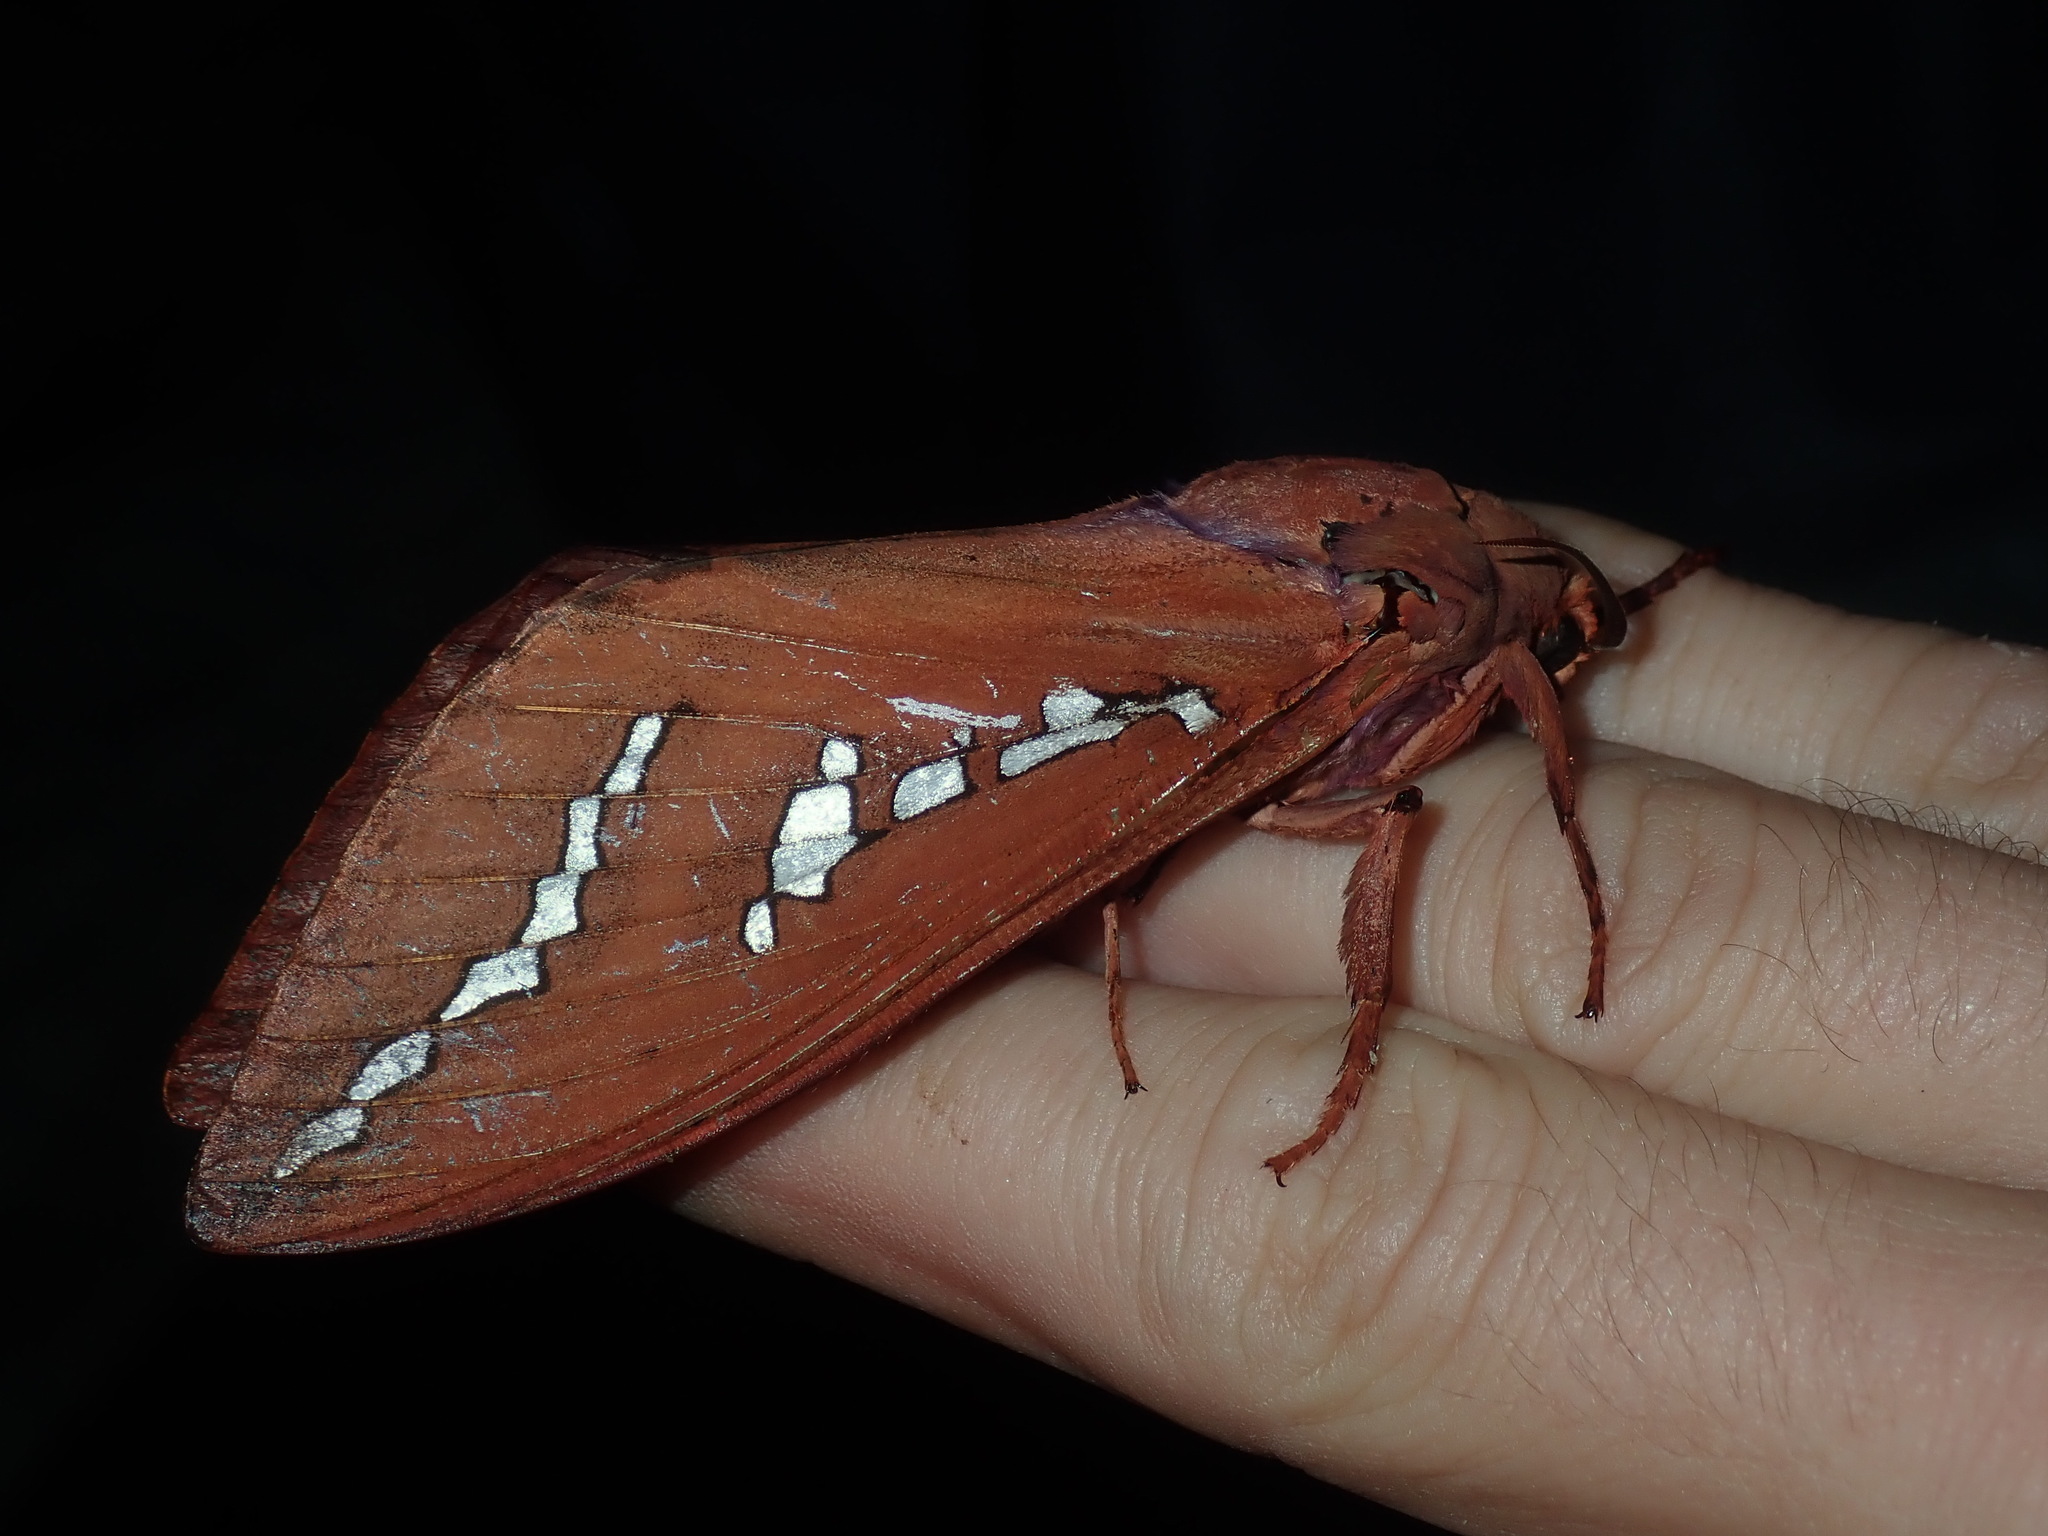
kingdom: Animalia
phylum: Arthropoda
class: Insecta
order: Lepidoptera
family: Hepialidae
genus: Abantiades
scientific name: Abantiades hyalinatus
